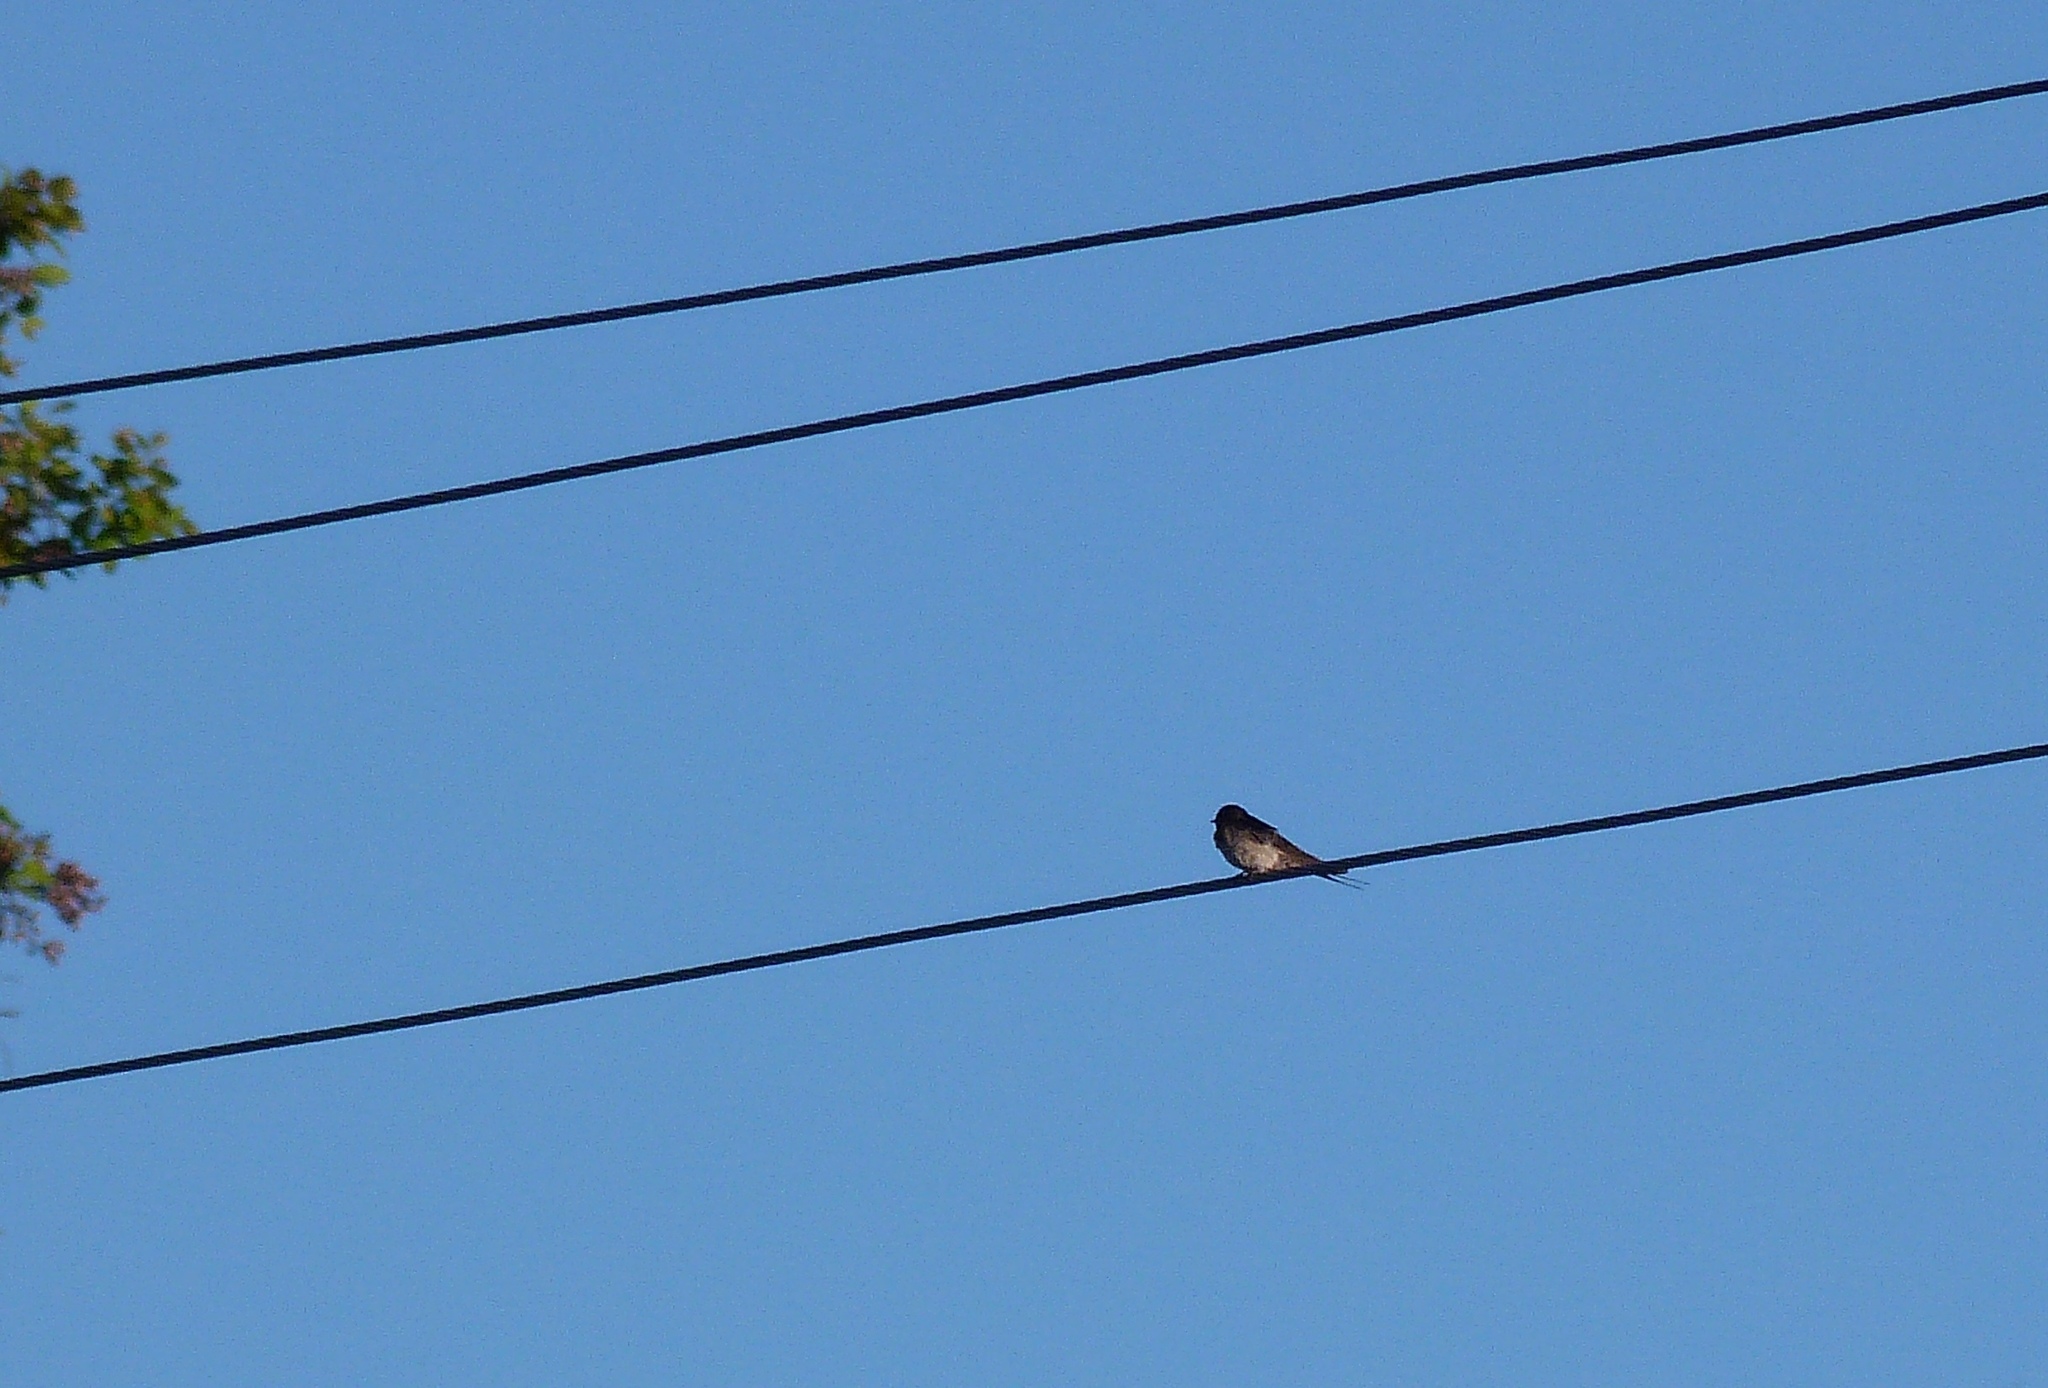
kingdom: Animalia
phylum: Chordata
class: Aves
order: Passeriformes
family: Hirundinidae
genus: Hirundo
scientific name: Hirundo neoxena
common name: Welcome swallow
